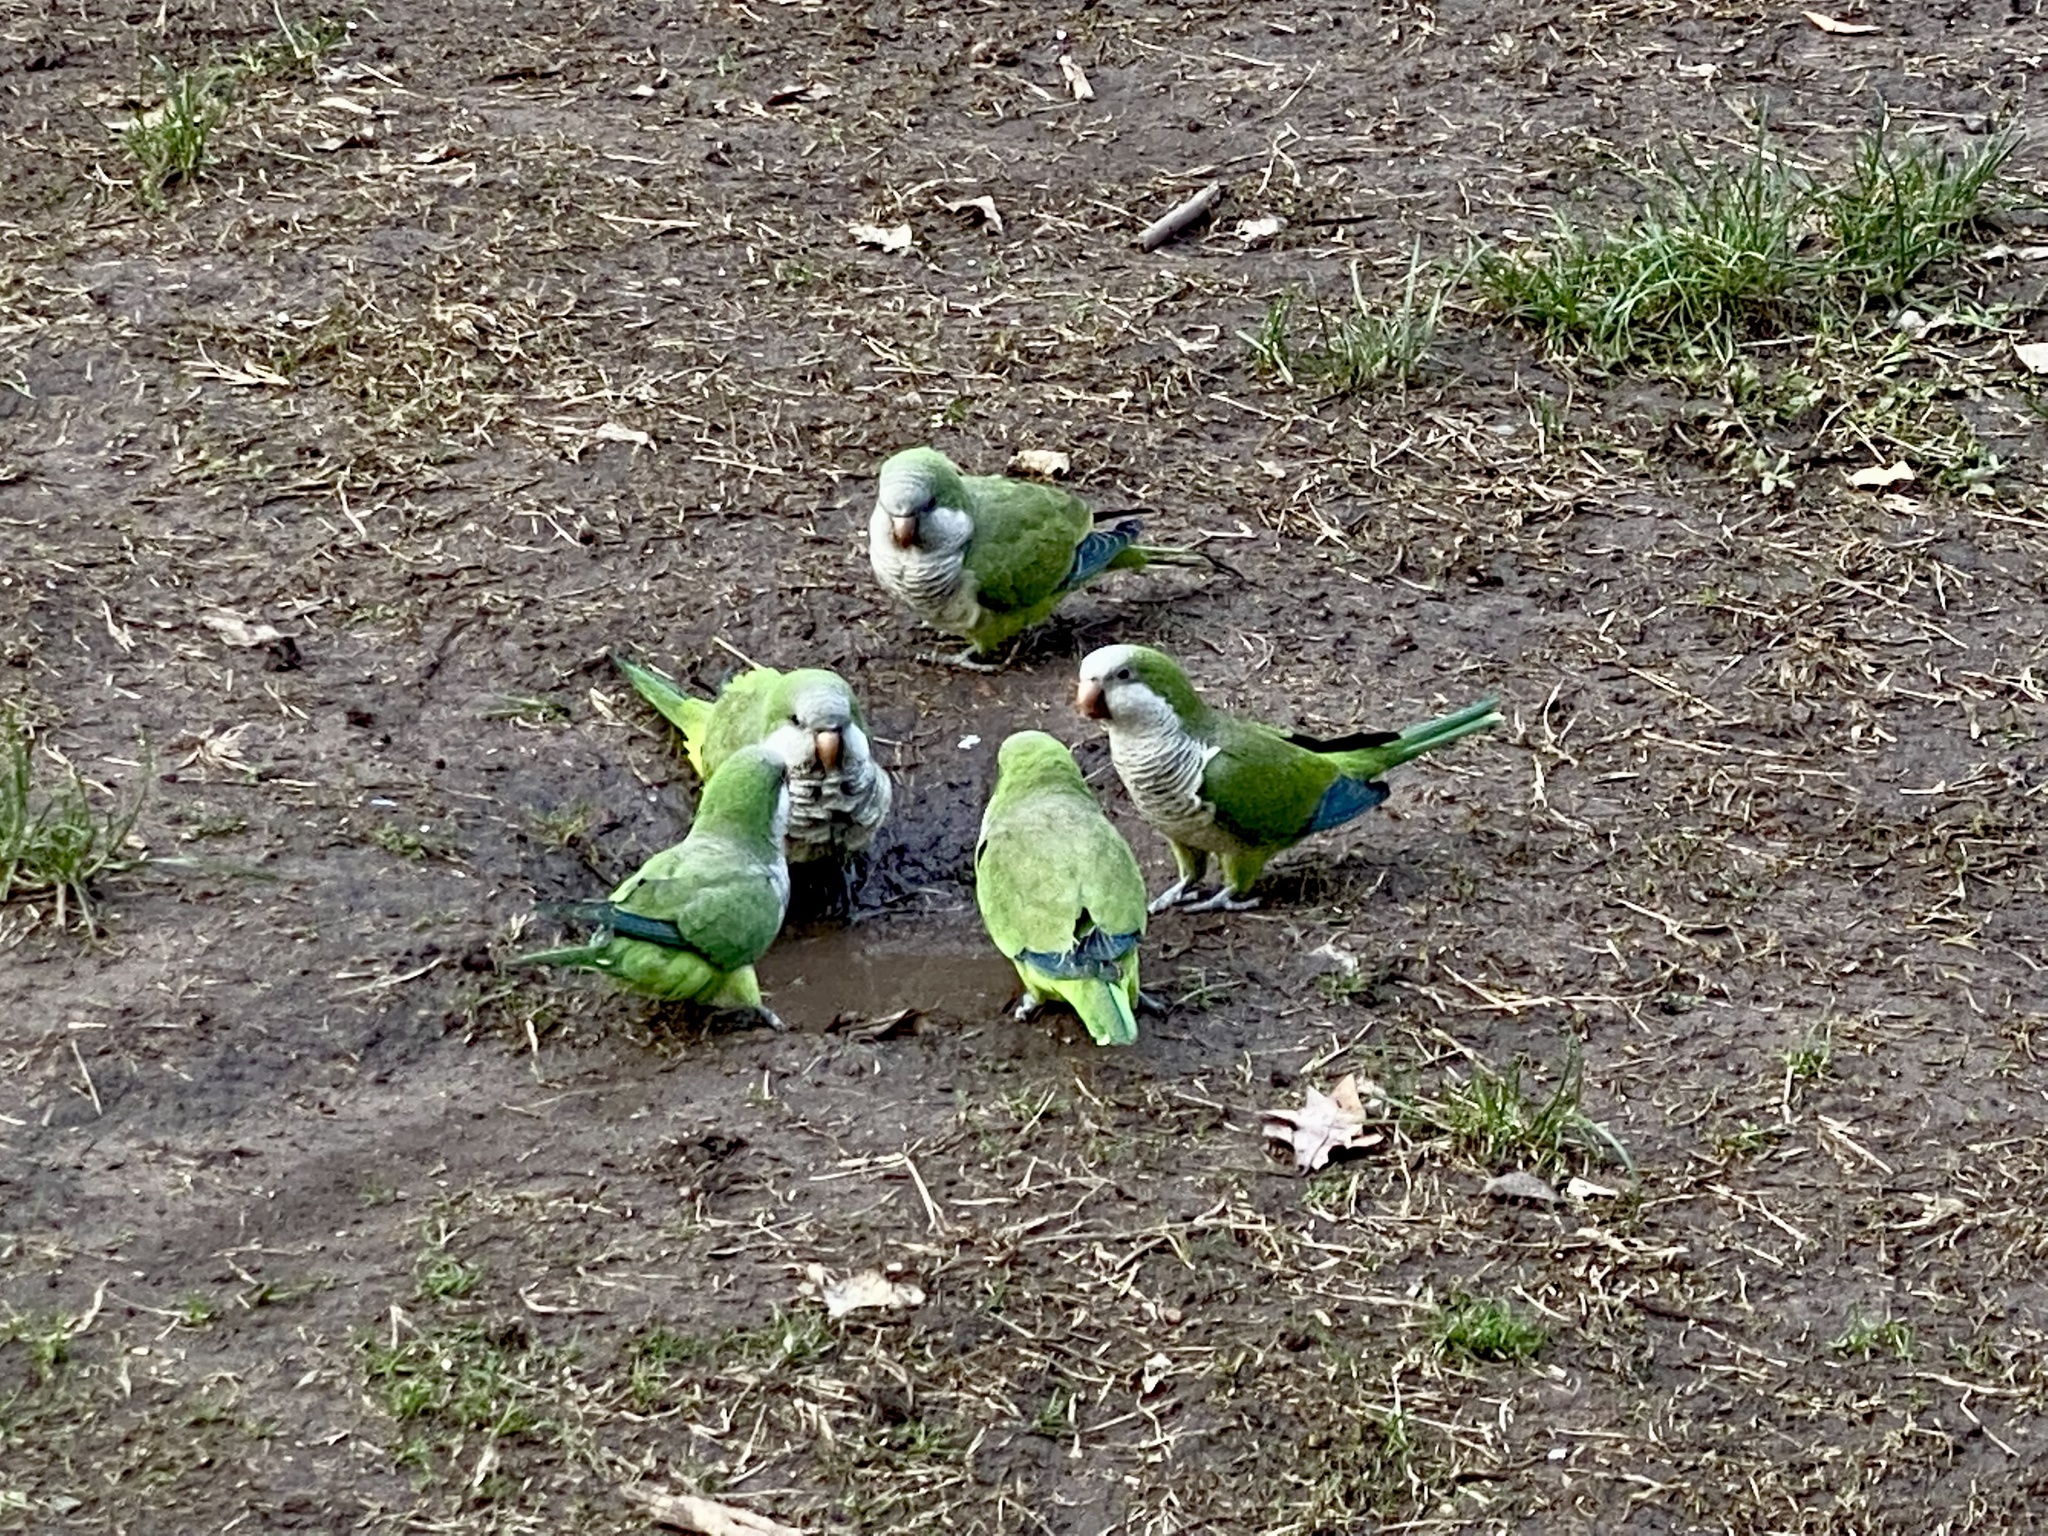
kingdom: Animalia
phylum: Chordata
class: Aves
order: Psittaciformes
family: Psittacidae
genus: Myiopsitta
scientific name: Myiopsitta monachus
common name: Monk parakeet
